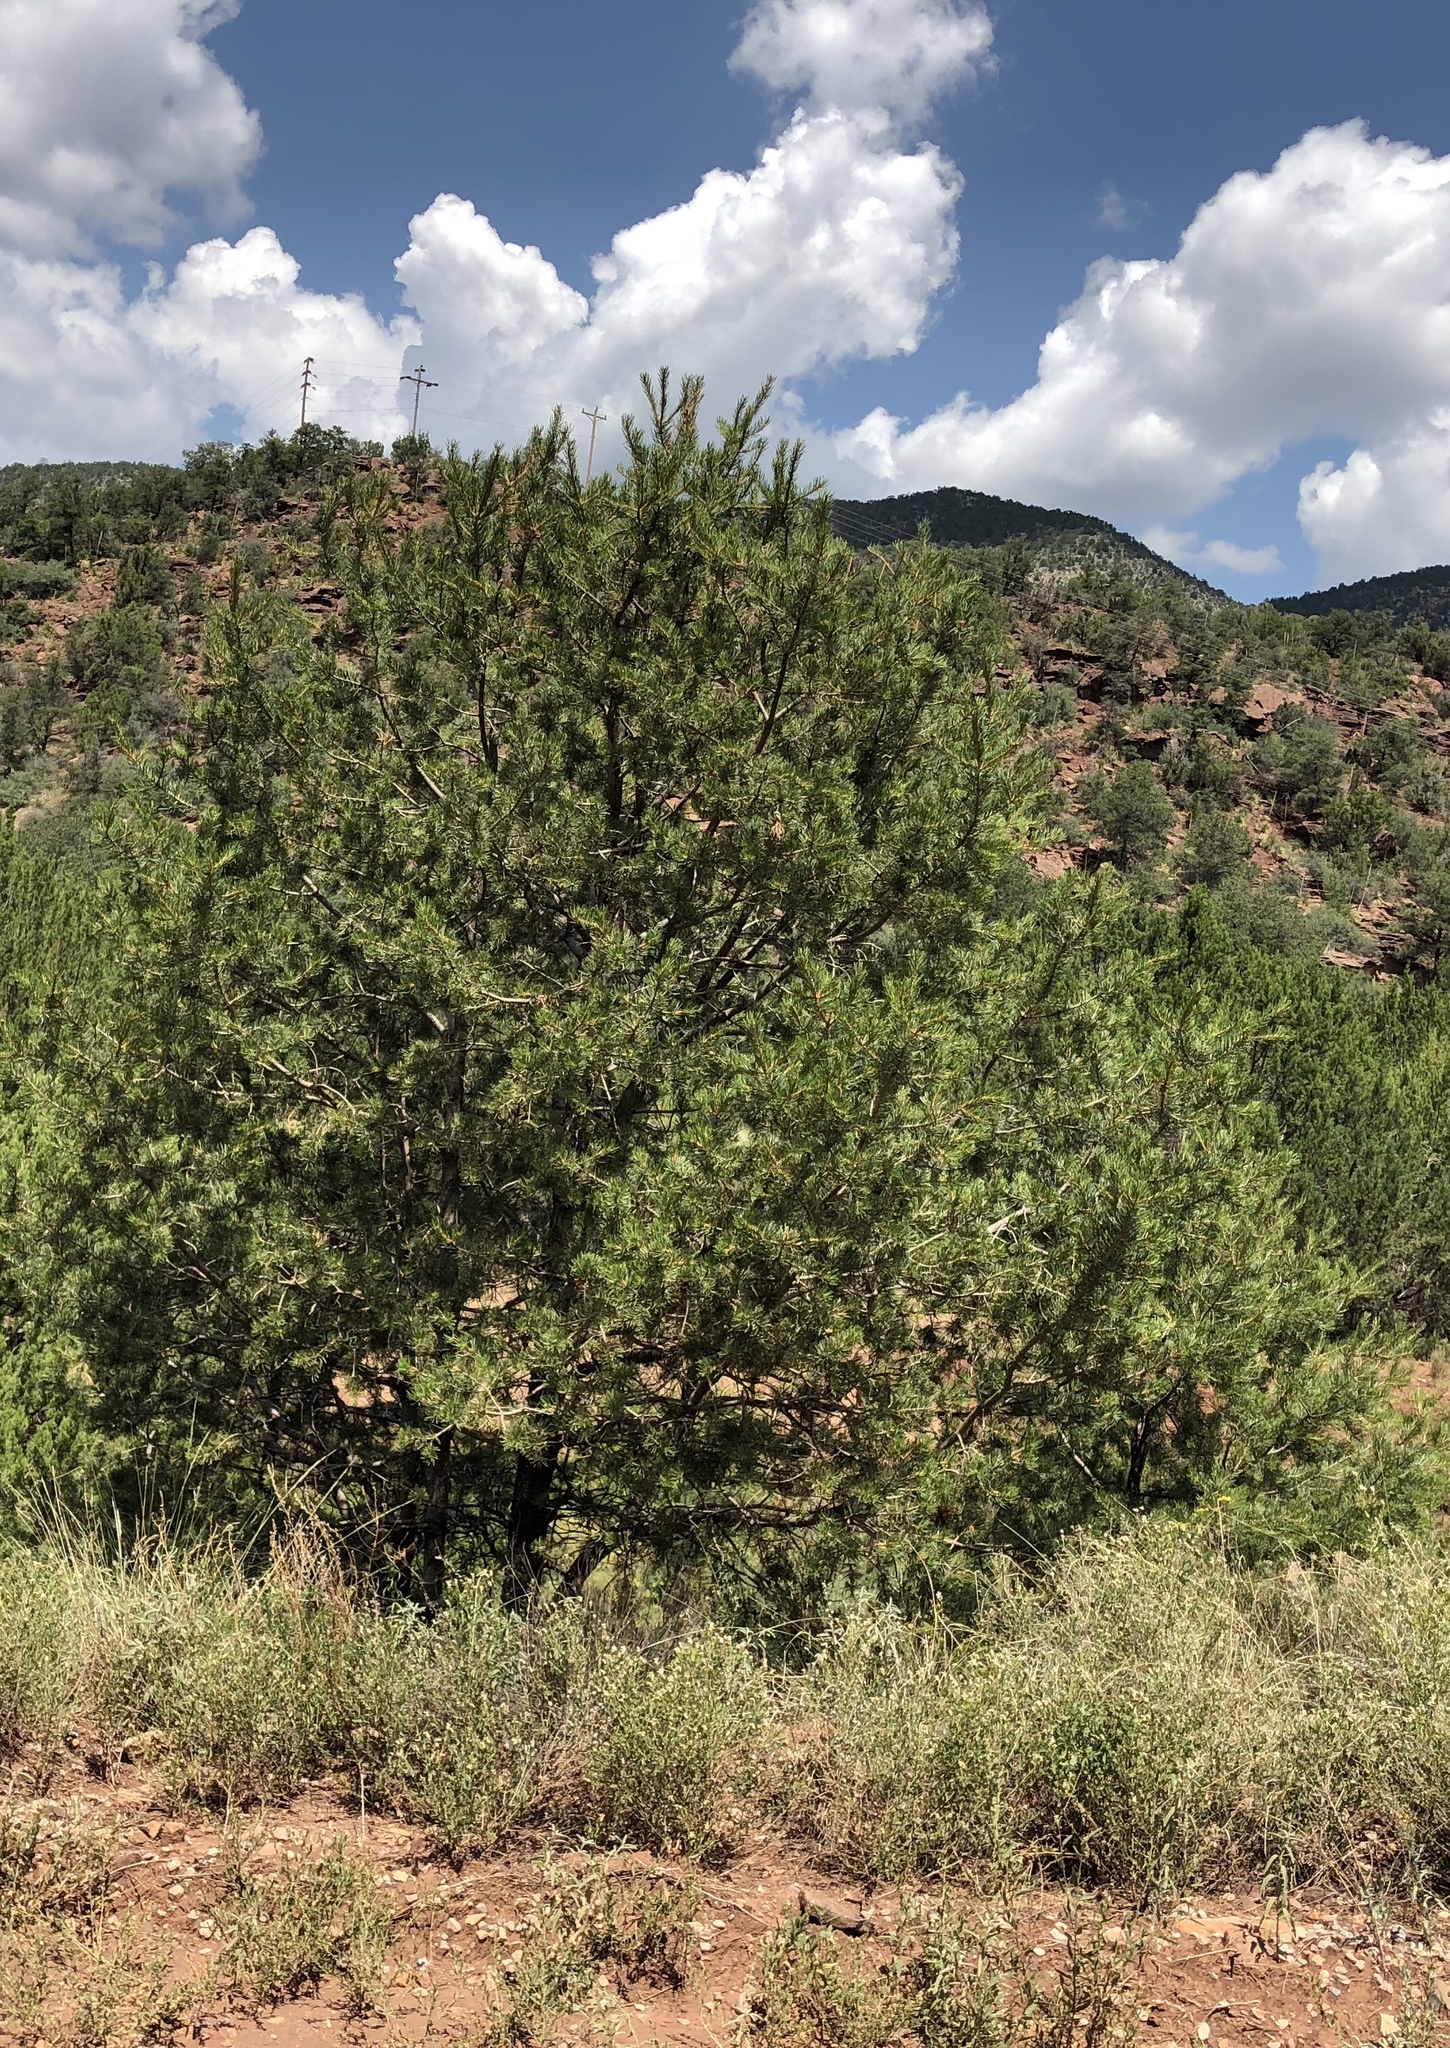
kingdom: Plantae
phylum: Tracheophyta
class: Pinopsida
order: Pinales
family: Pinaceae
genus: Pinus
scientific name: Pinus edulis
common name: Colorado pinyon
